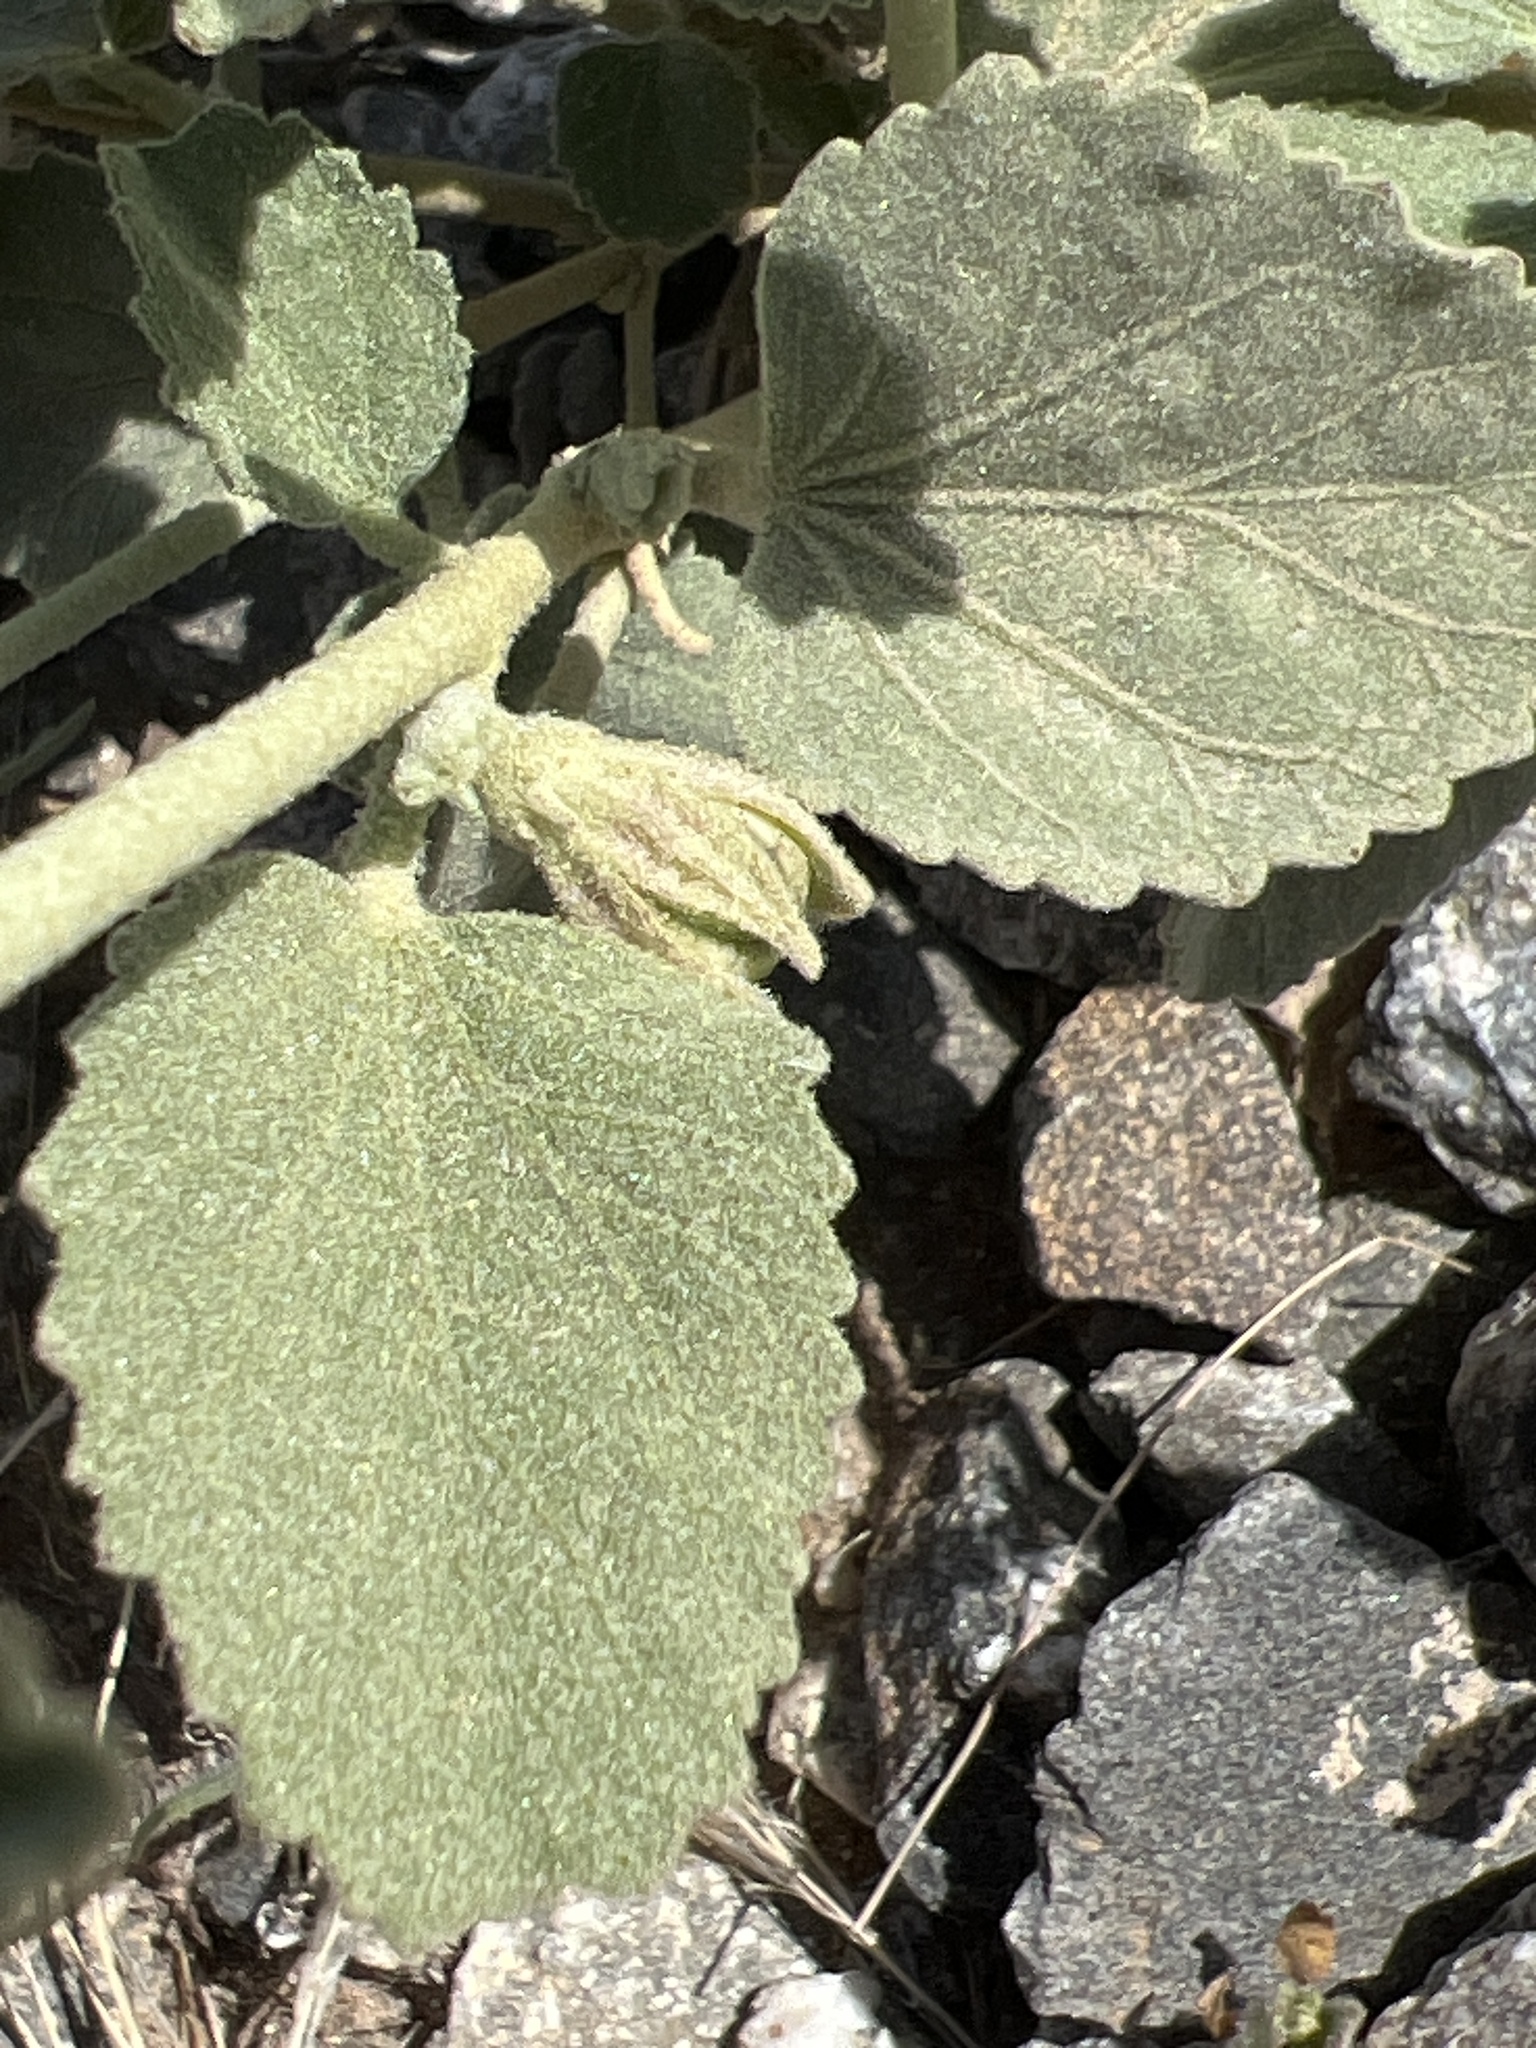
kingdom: Plantae
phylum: Tracheophyta
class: Magnoliopsida
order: Malvales
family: Malvaceae
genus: Hibiscus
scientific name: Hibiscus denudatus
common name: Paleface
